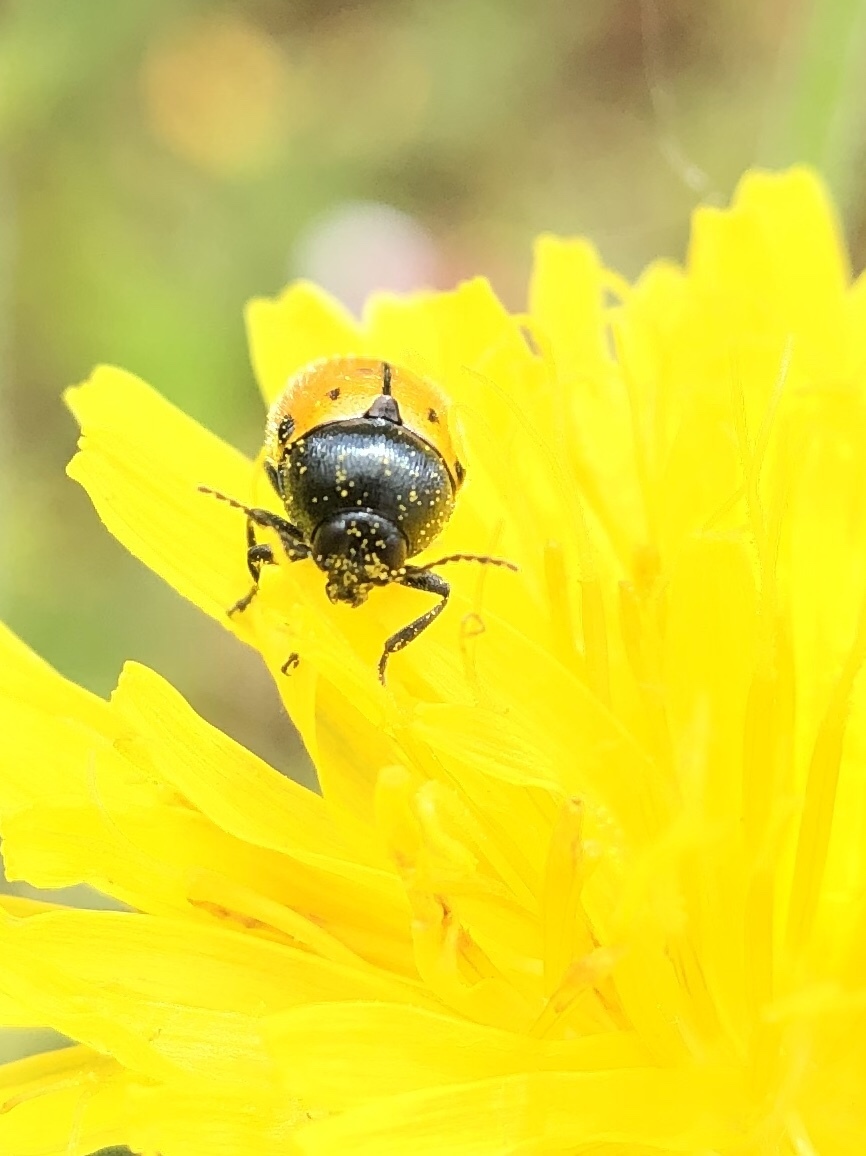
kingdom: Animalia
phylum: Arthropoda
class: Insecta
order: Coleoptera
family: Chrysomelidae
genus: Cryptocephalus
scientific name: Cryptocephalus rugicollis
